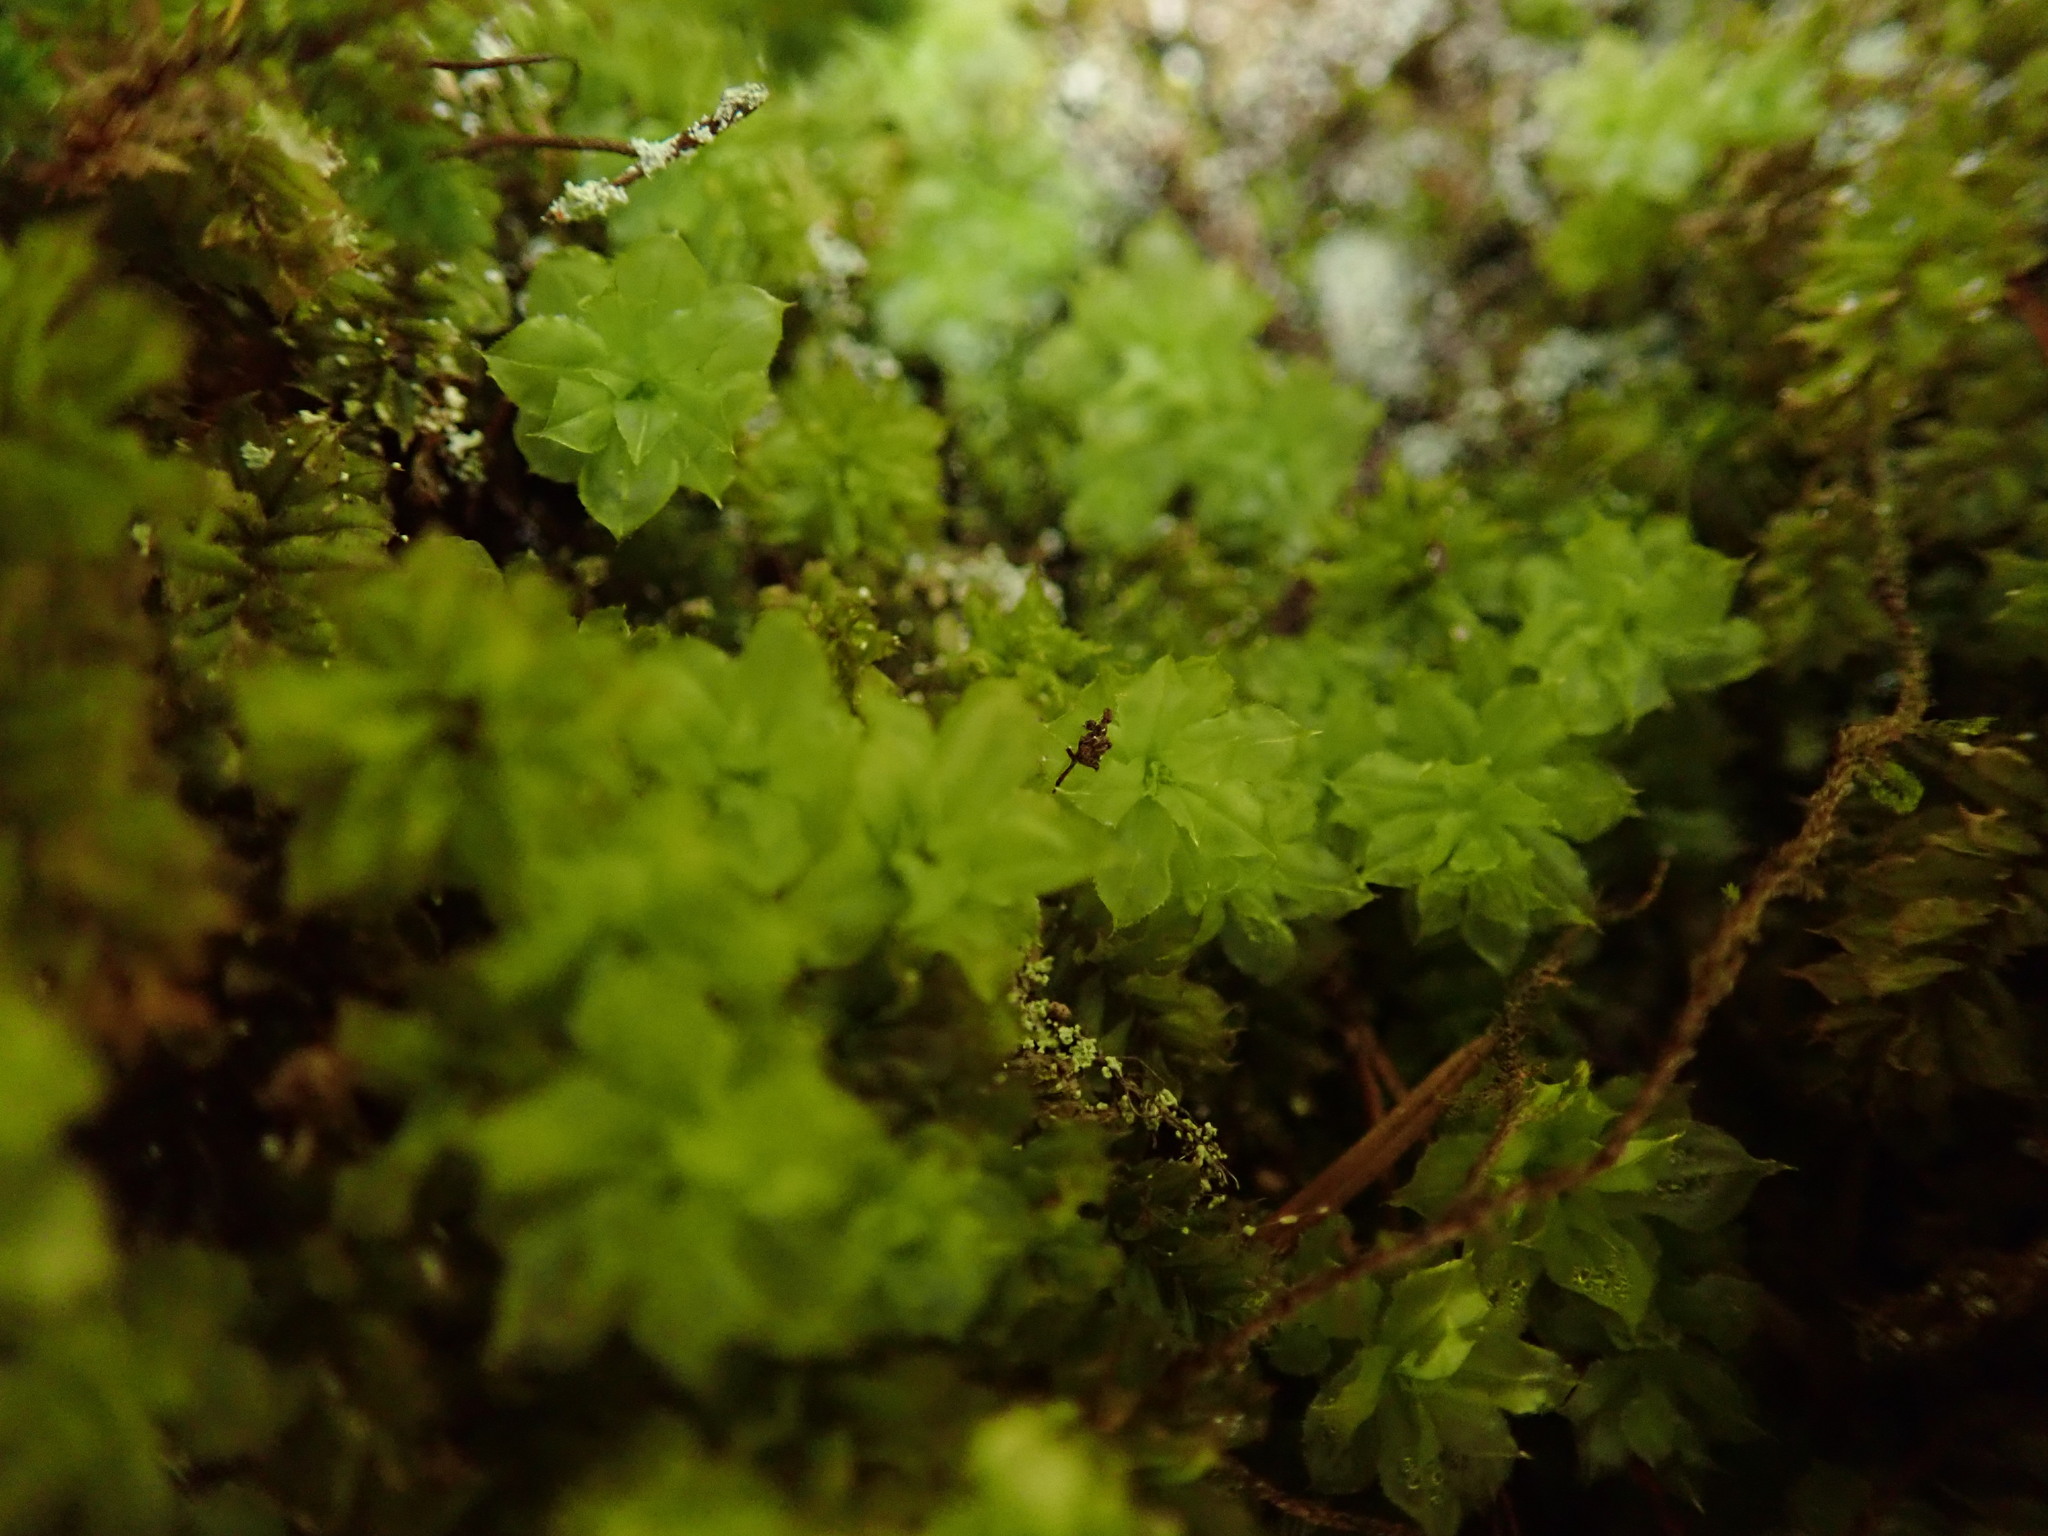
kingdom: Plantae
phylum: Bryophyta
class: Bryopsida
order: Bryales
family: Mniaceae
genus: Plagiomnium
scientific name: Plagiomnium venustum
